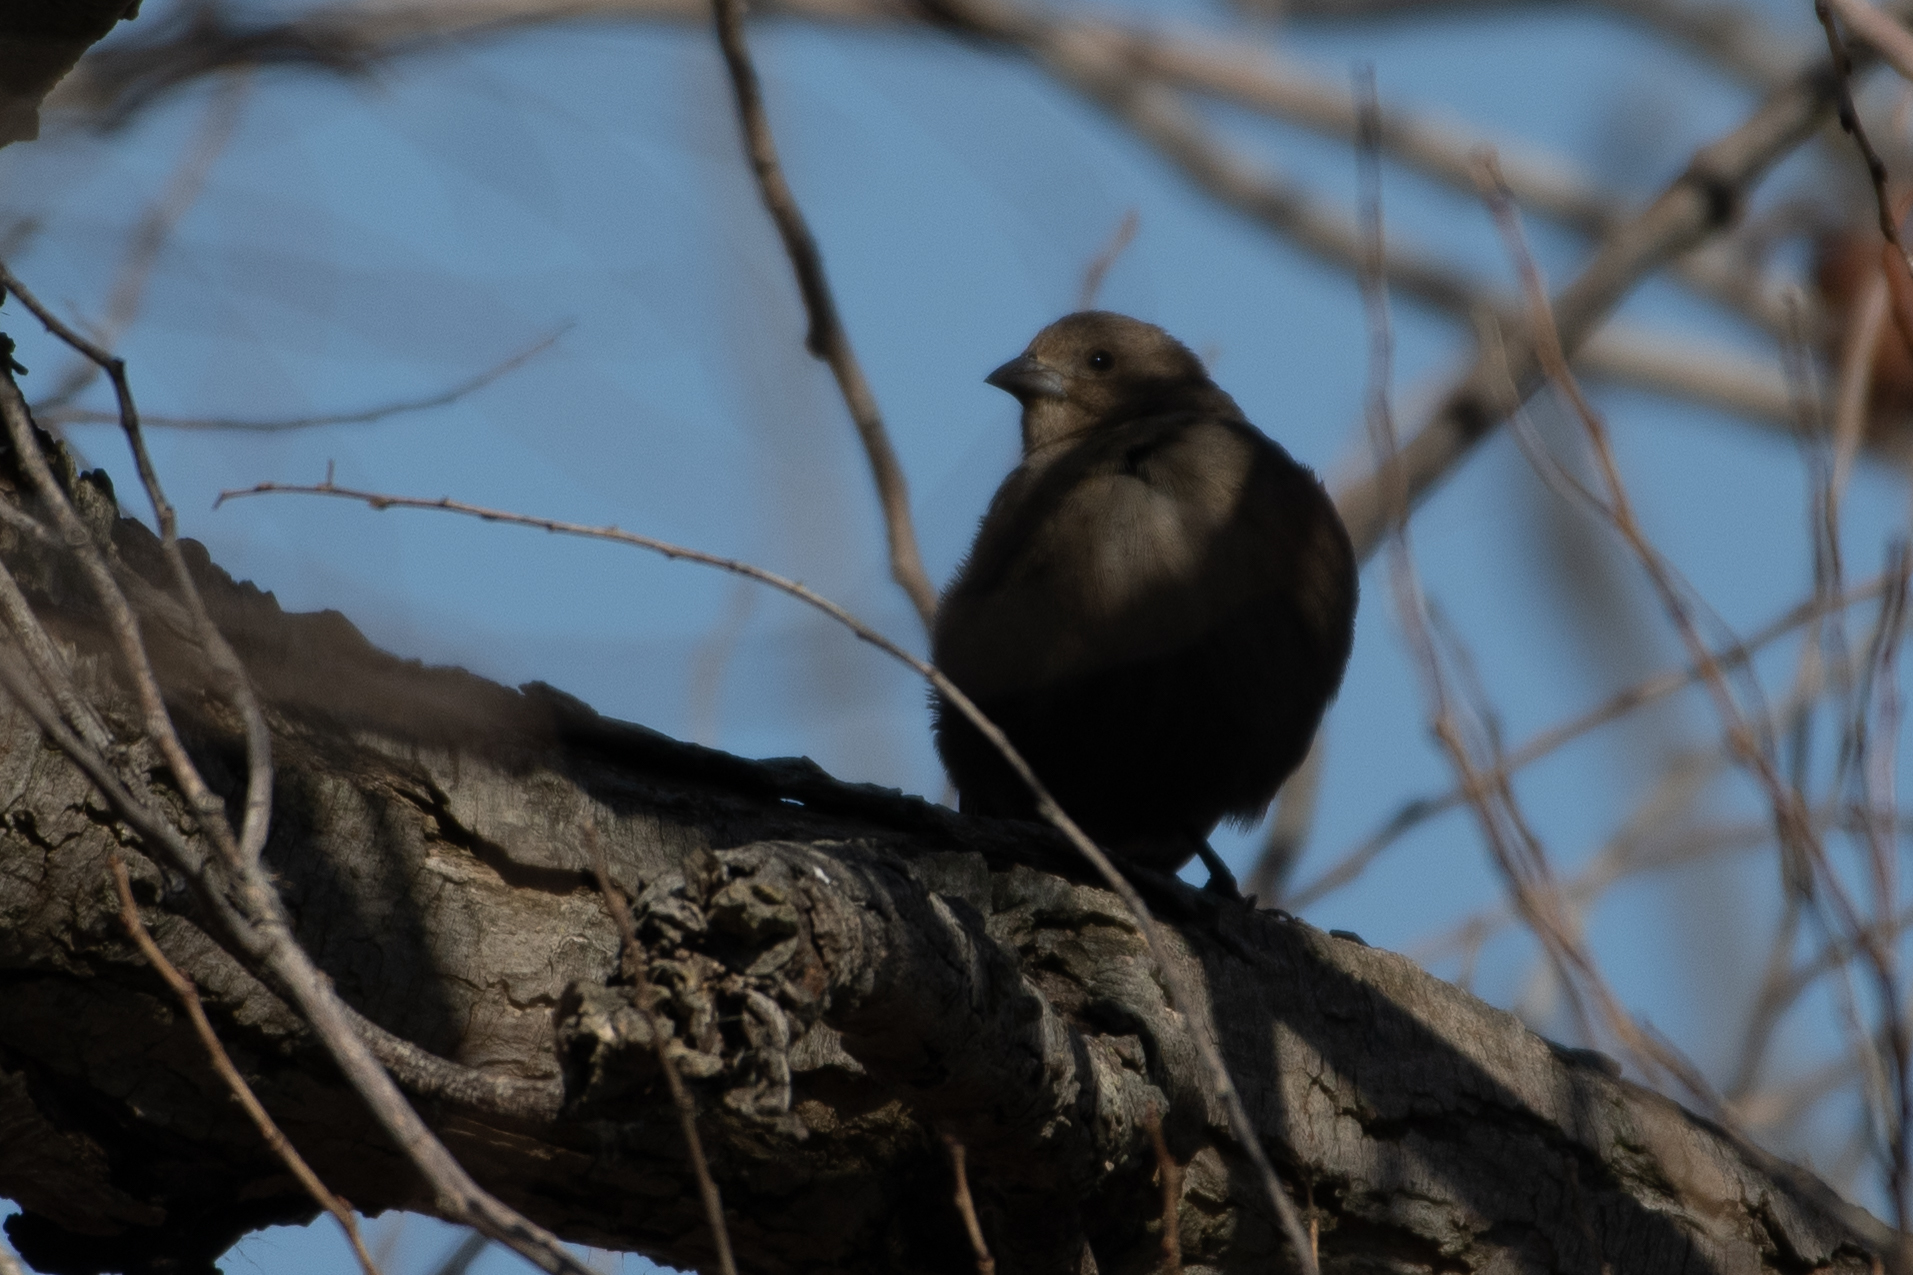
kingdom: Animalia
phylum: Chordata
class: Aves
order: Passeriformes
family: Icteridae
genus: Molothrus
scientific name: Molothrus ater
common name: Brown-headed cowbird
